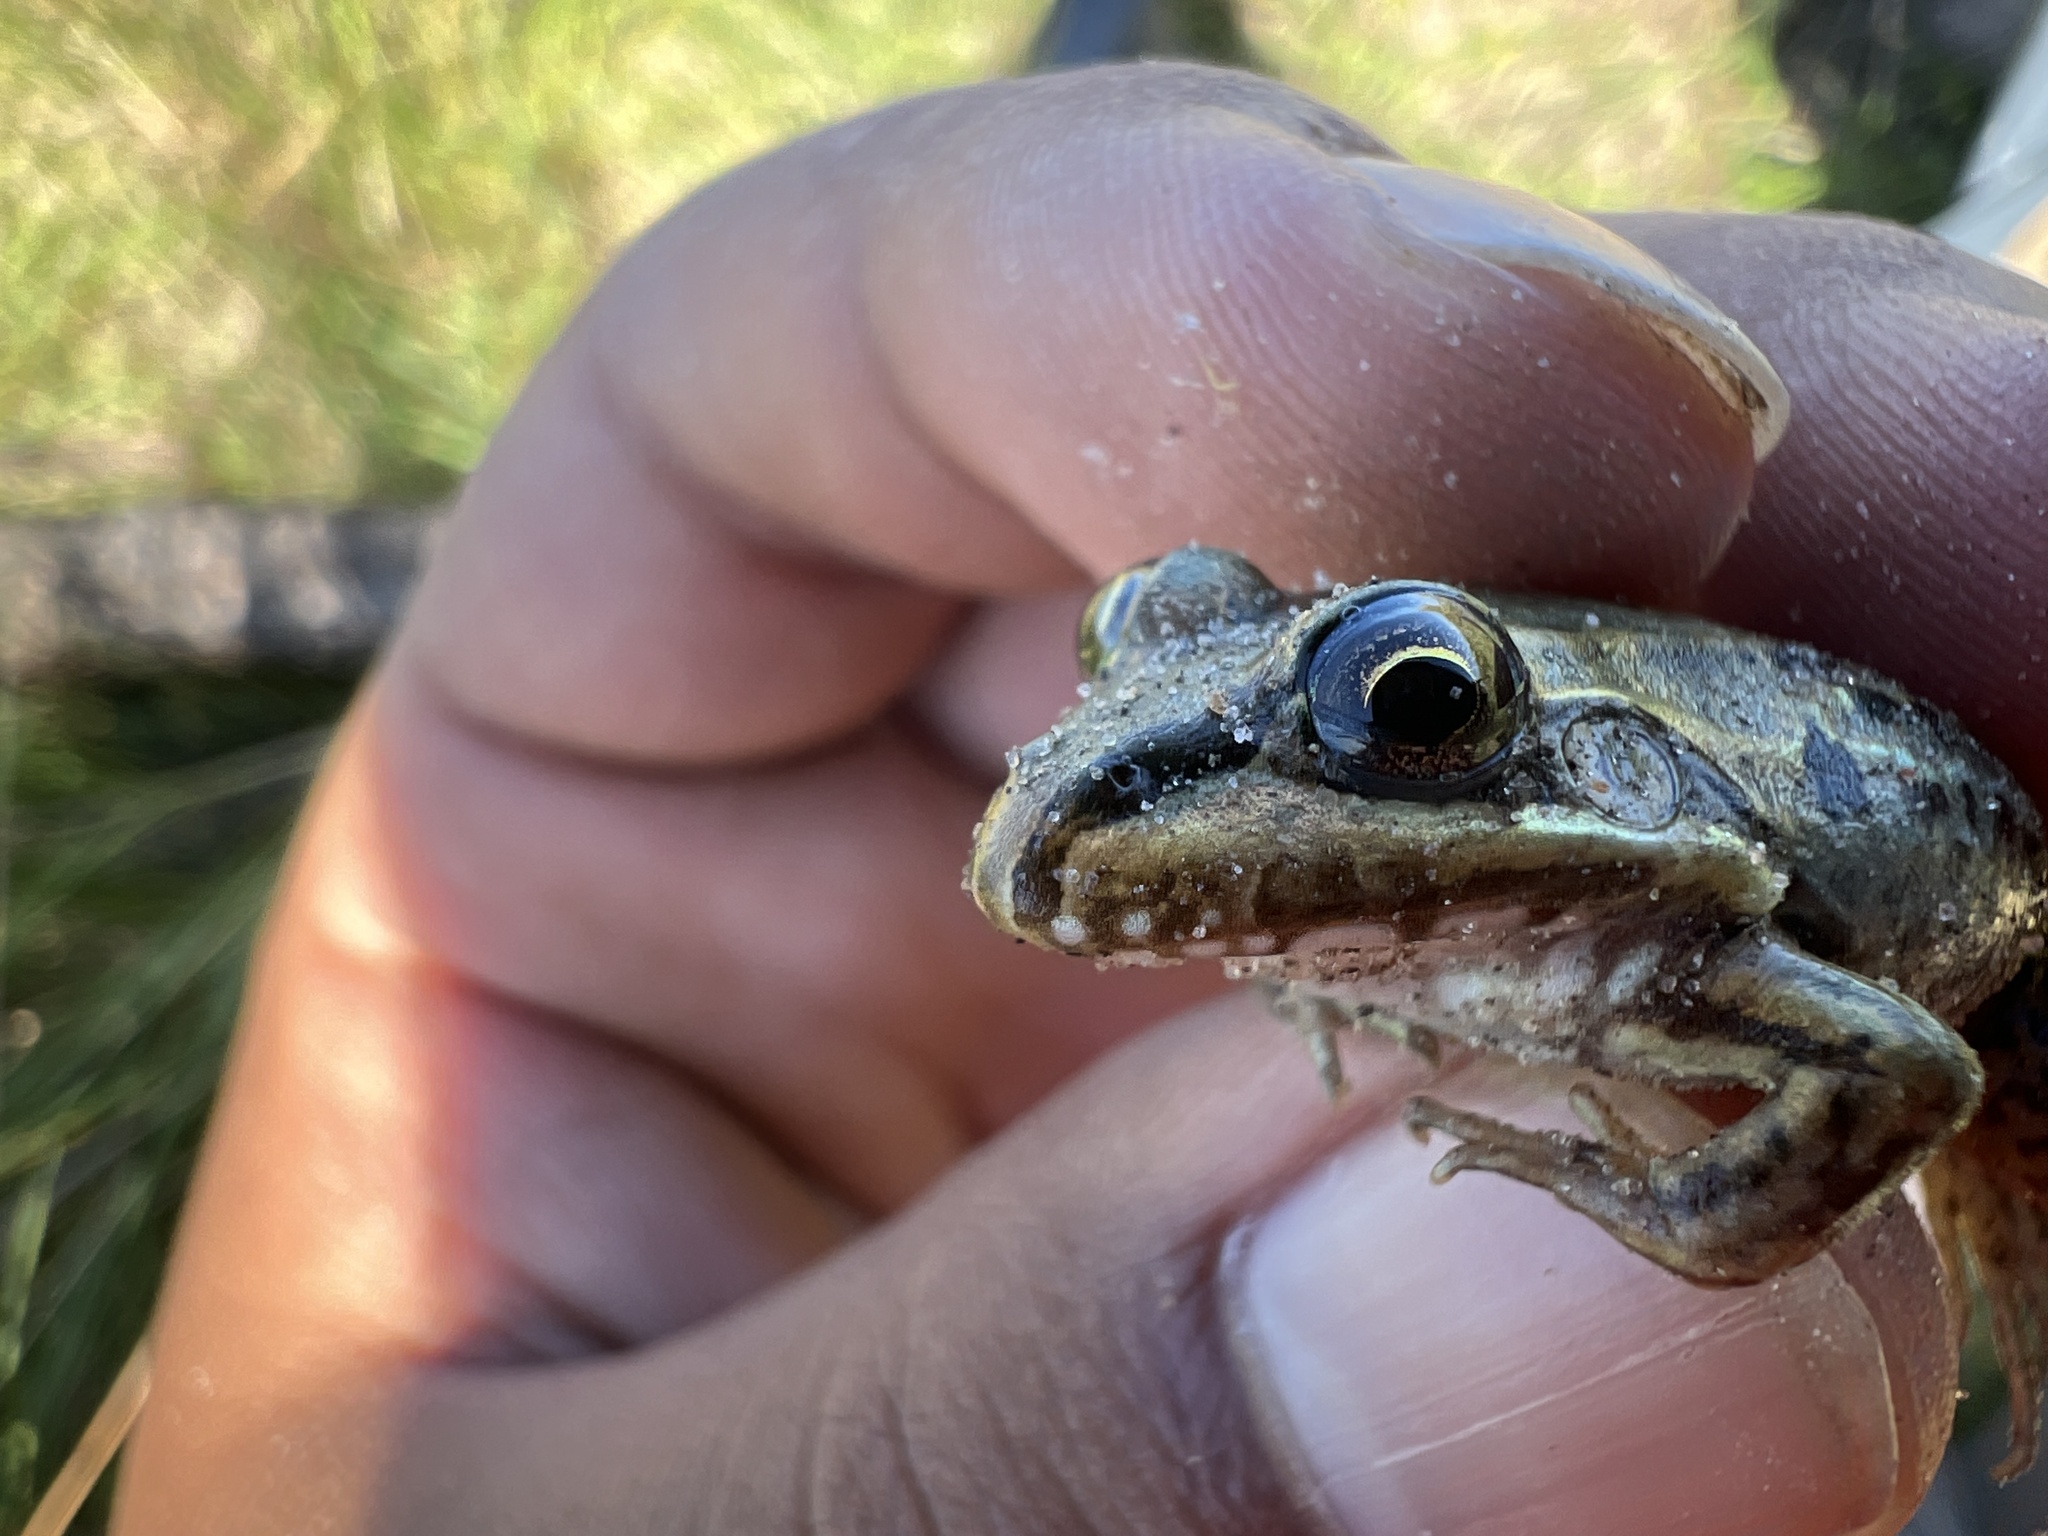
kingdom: Animalia
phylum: Chordata
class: Amphibia
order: Anura
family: Leptodactylidae
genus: Leptodactylus
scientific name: Leptodactylus latinasus
